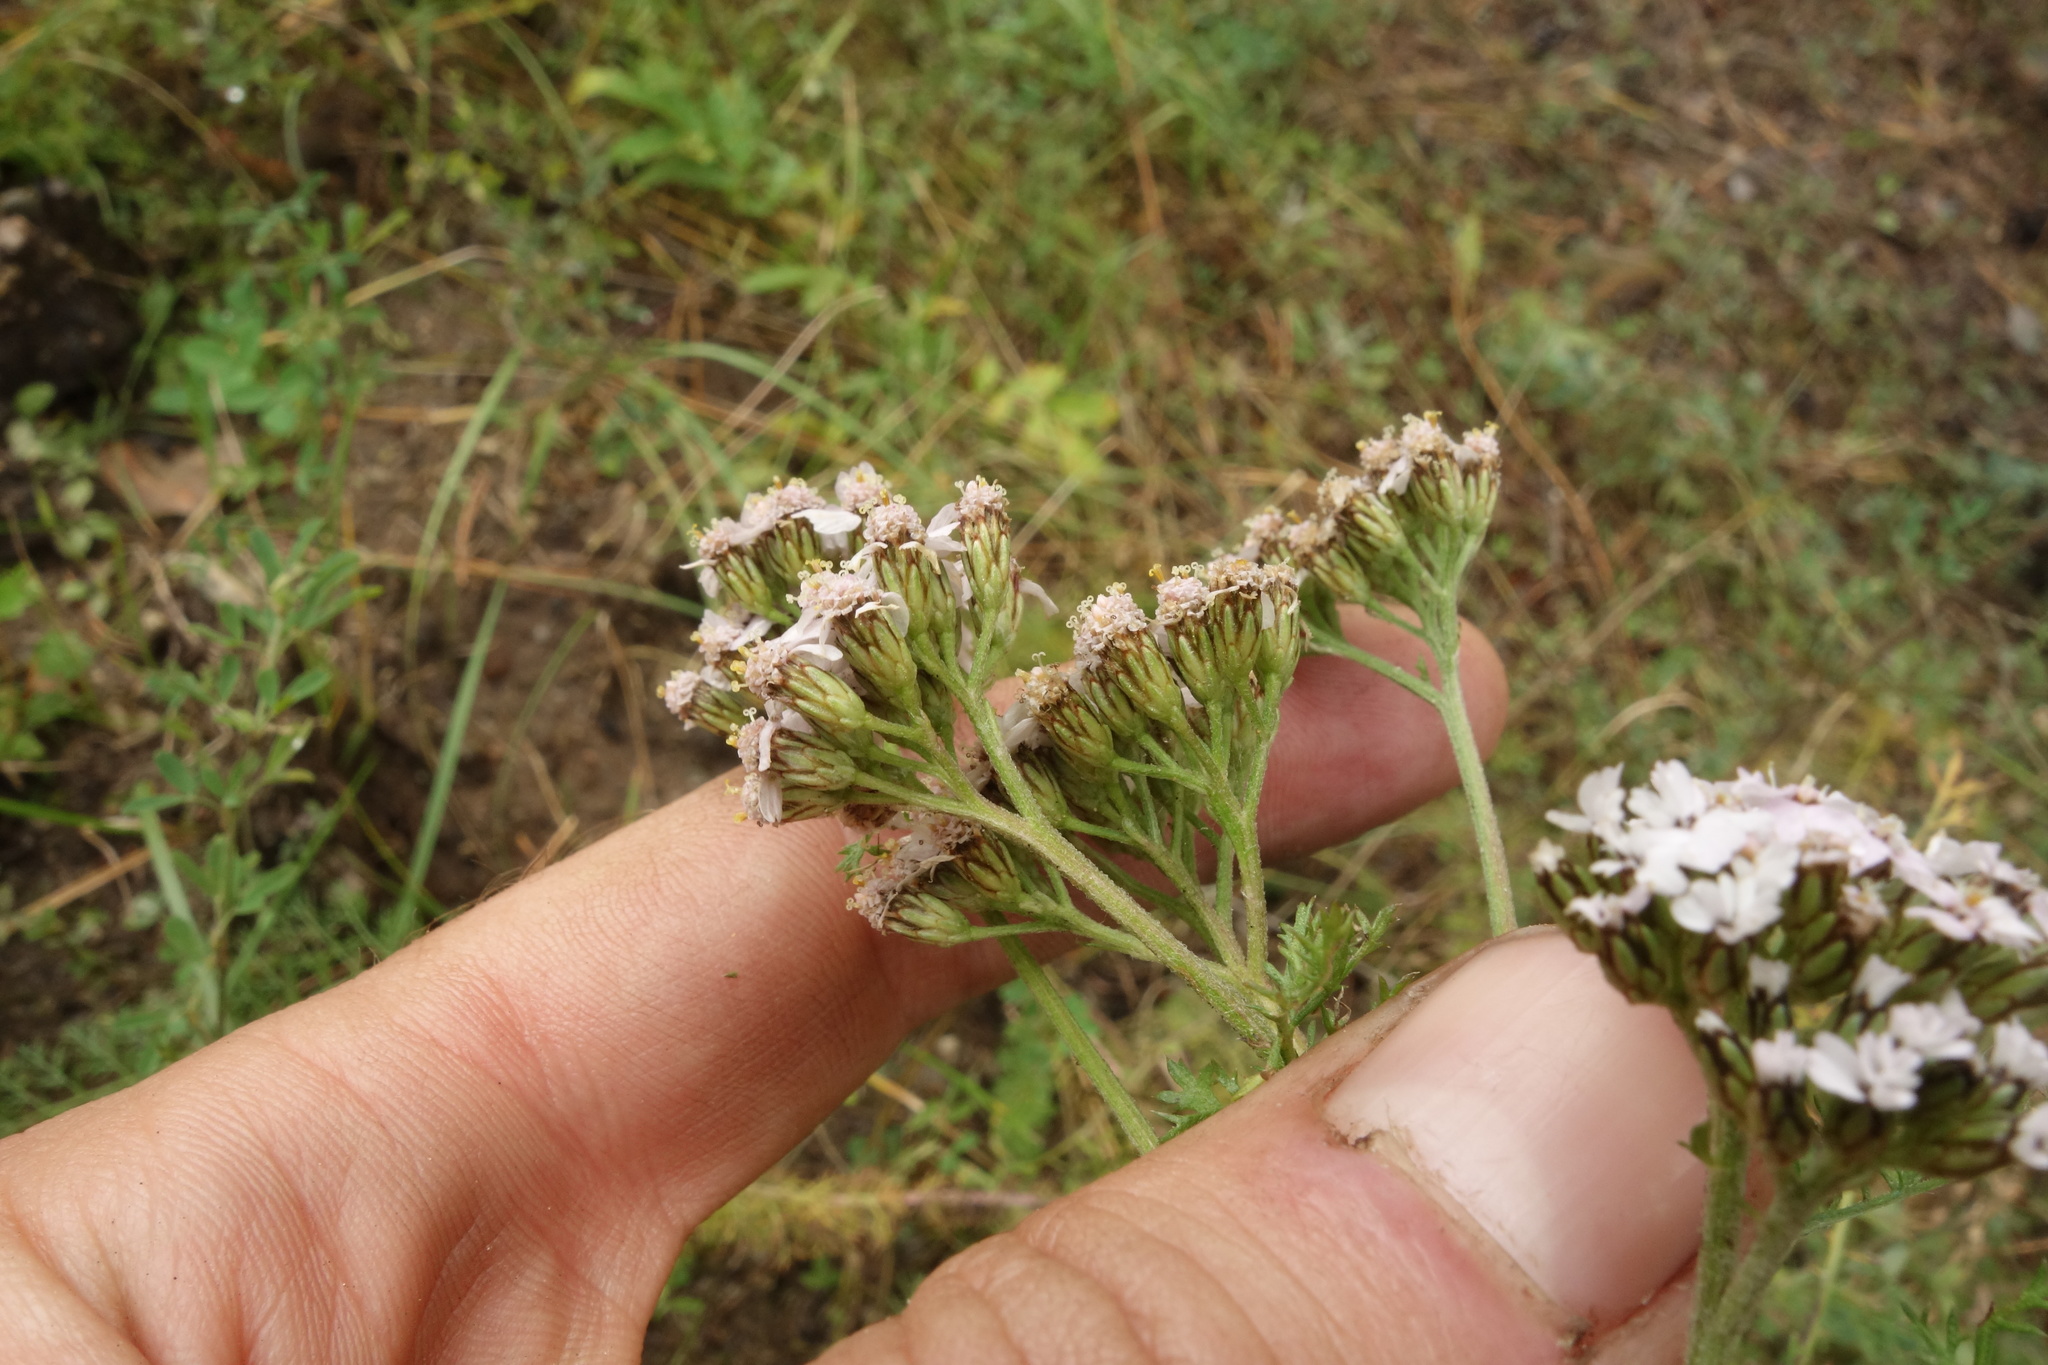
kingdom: Plantae
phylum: Tracheophyta
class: Magnoliopsida
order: Asterales
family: Asteraceae
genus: Achillea
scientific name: Achillea millefolium
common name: Yarrow
